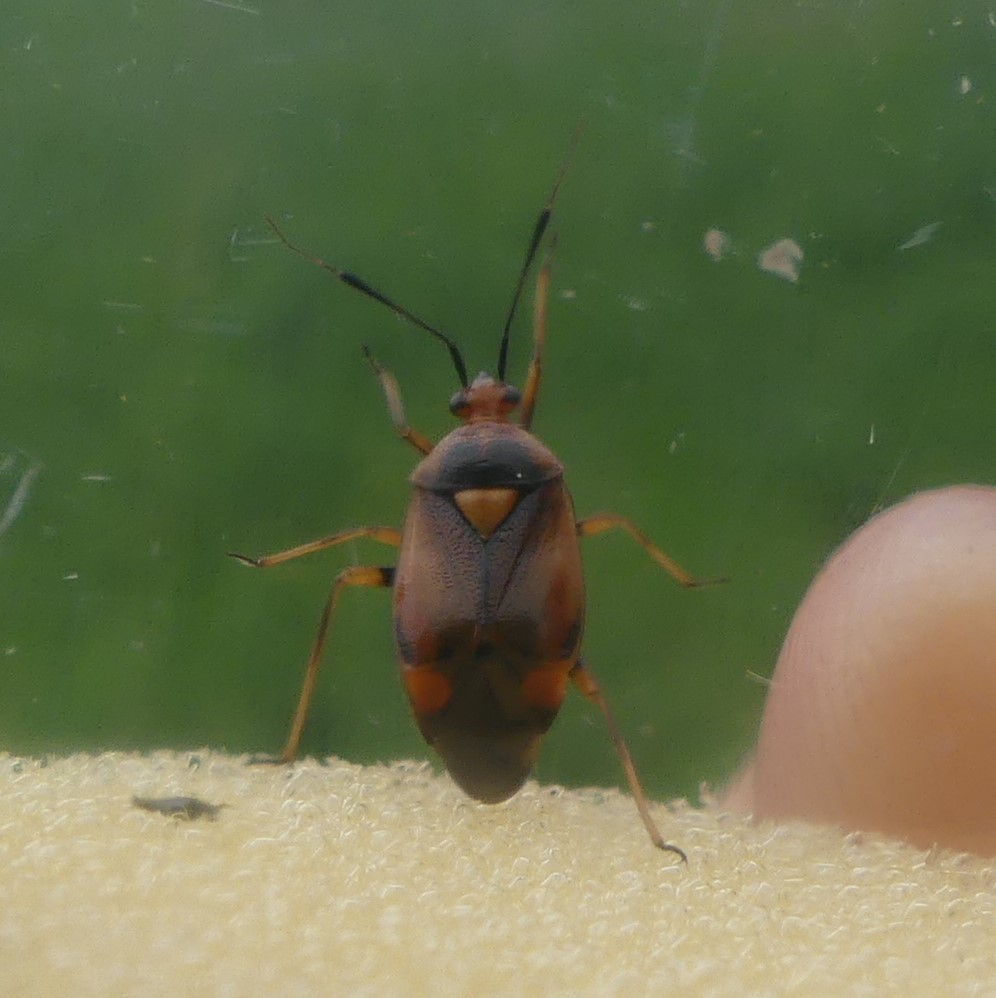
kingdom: Animalia
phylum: Arthropoda
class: Insecta
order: Hemiptera
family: Miridae
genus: Deraeocoris
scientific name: Deraeocoris ruber
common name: Plant bug
